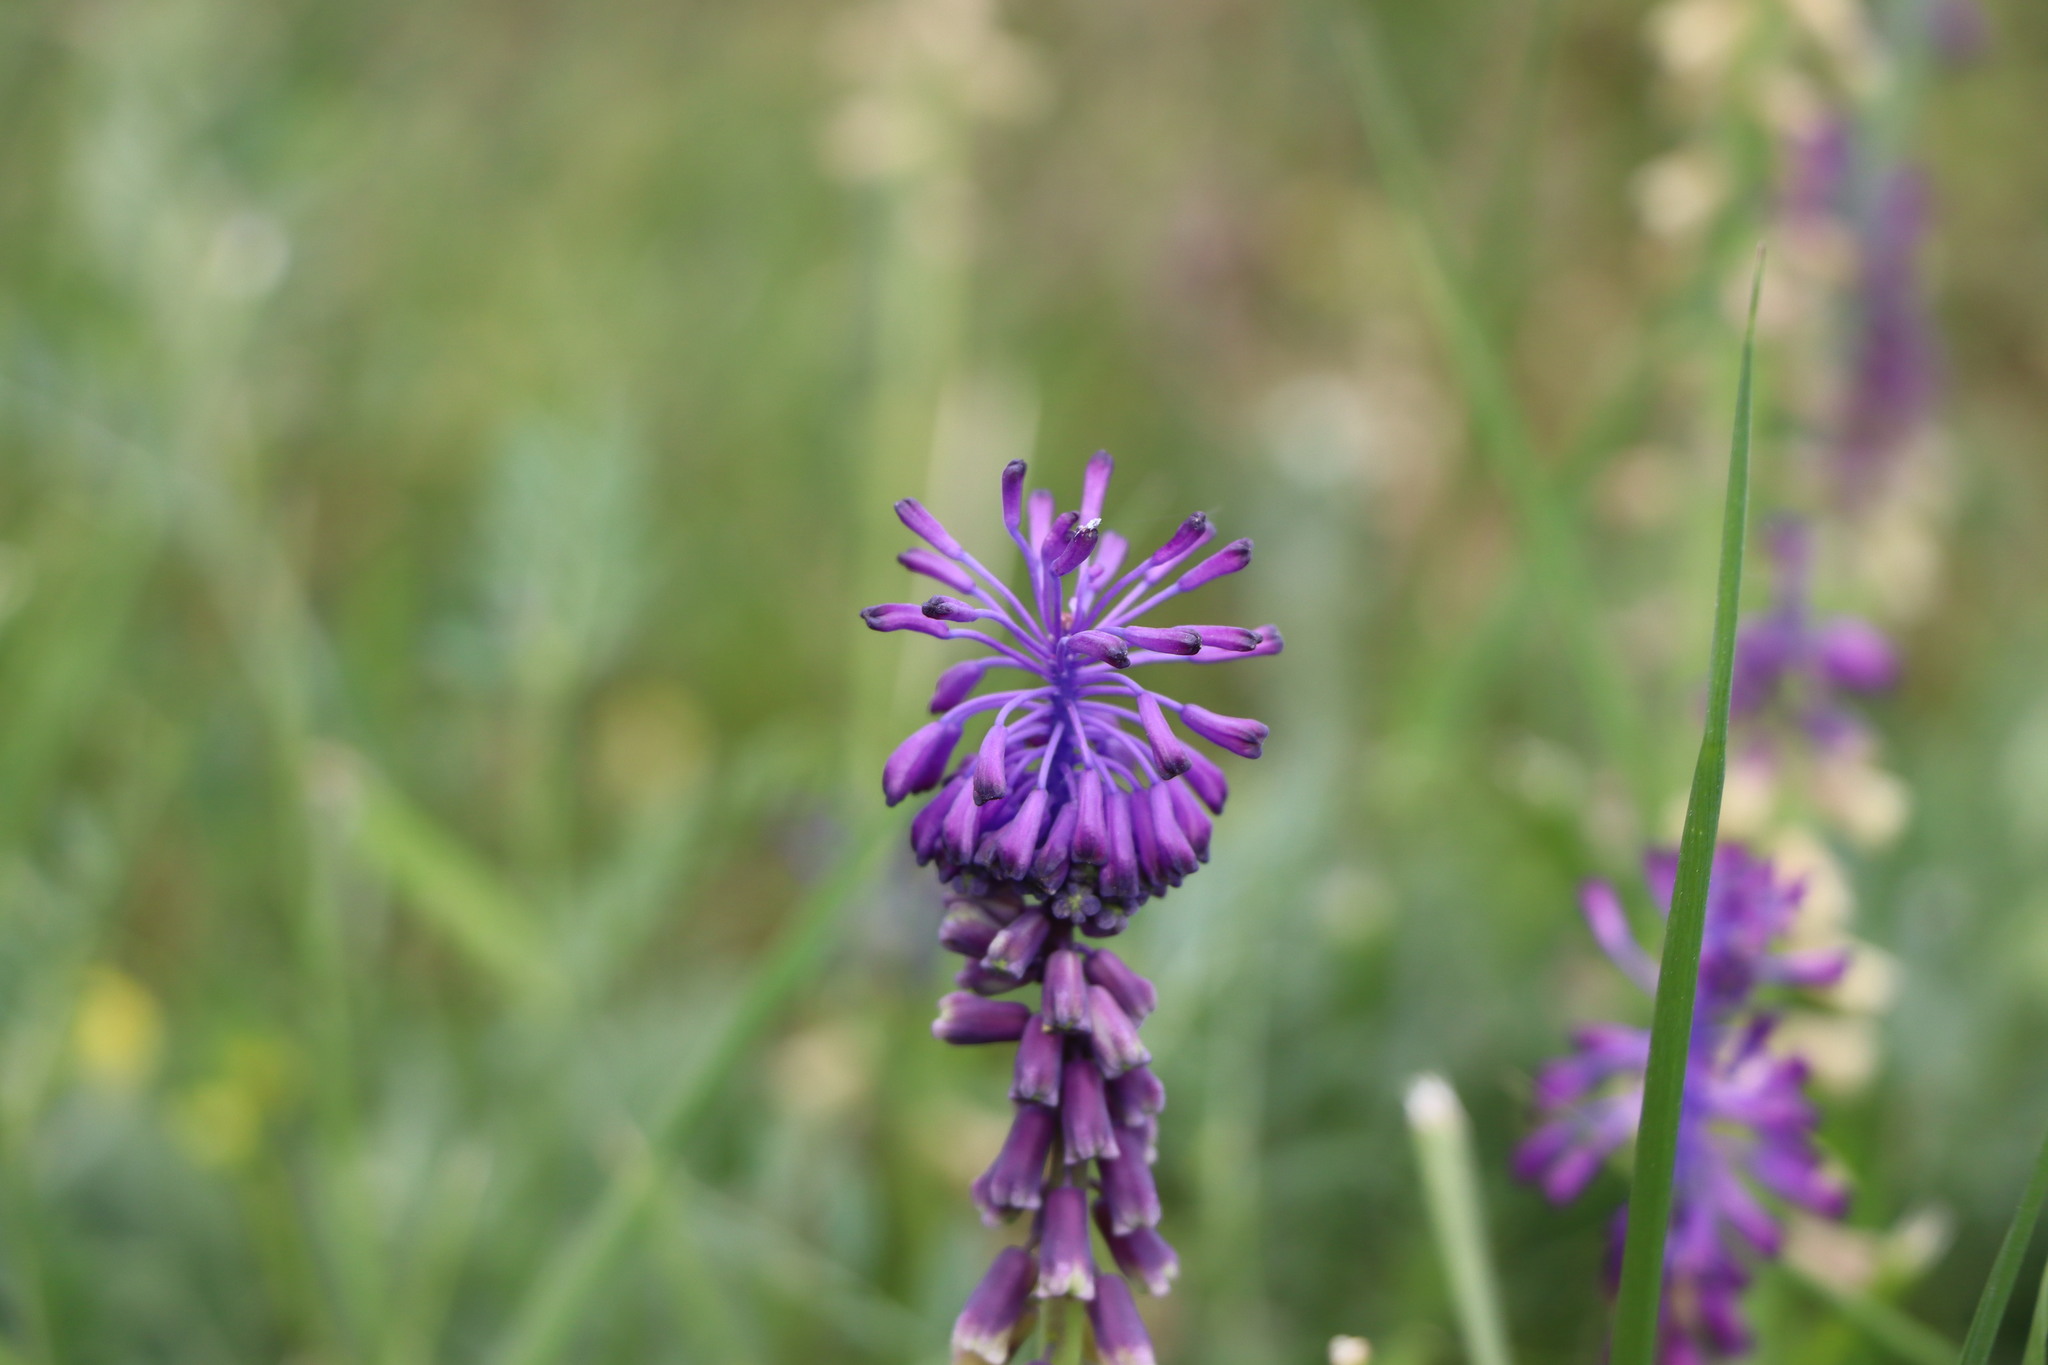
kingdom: Plantae
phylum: Tracheophyta
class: Liliopsida
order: Asparagales
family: Asparagaceae
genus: Muscari
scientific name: Muscari tenuiflorum
